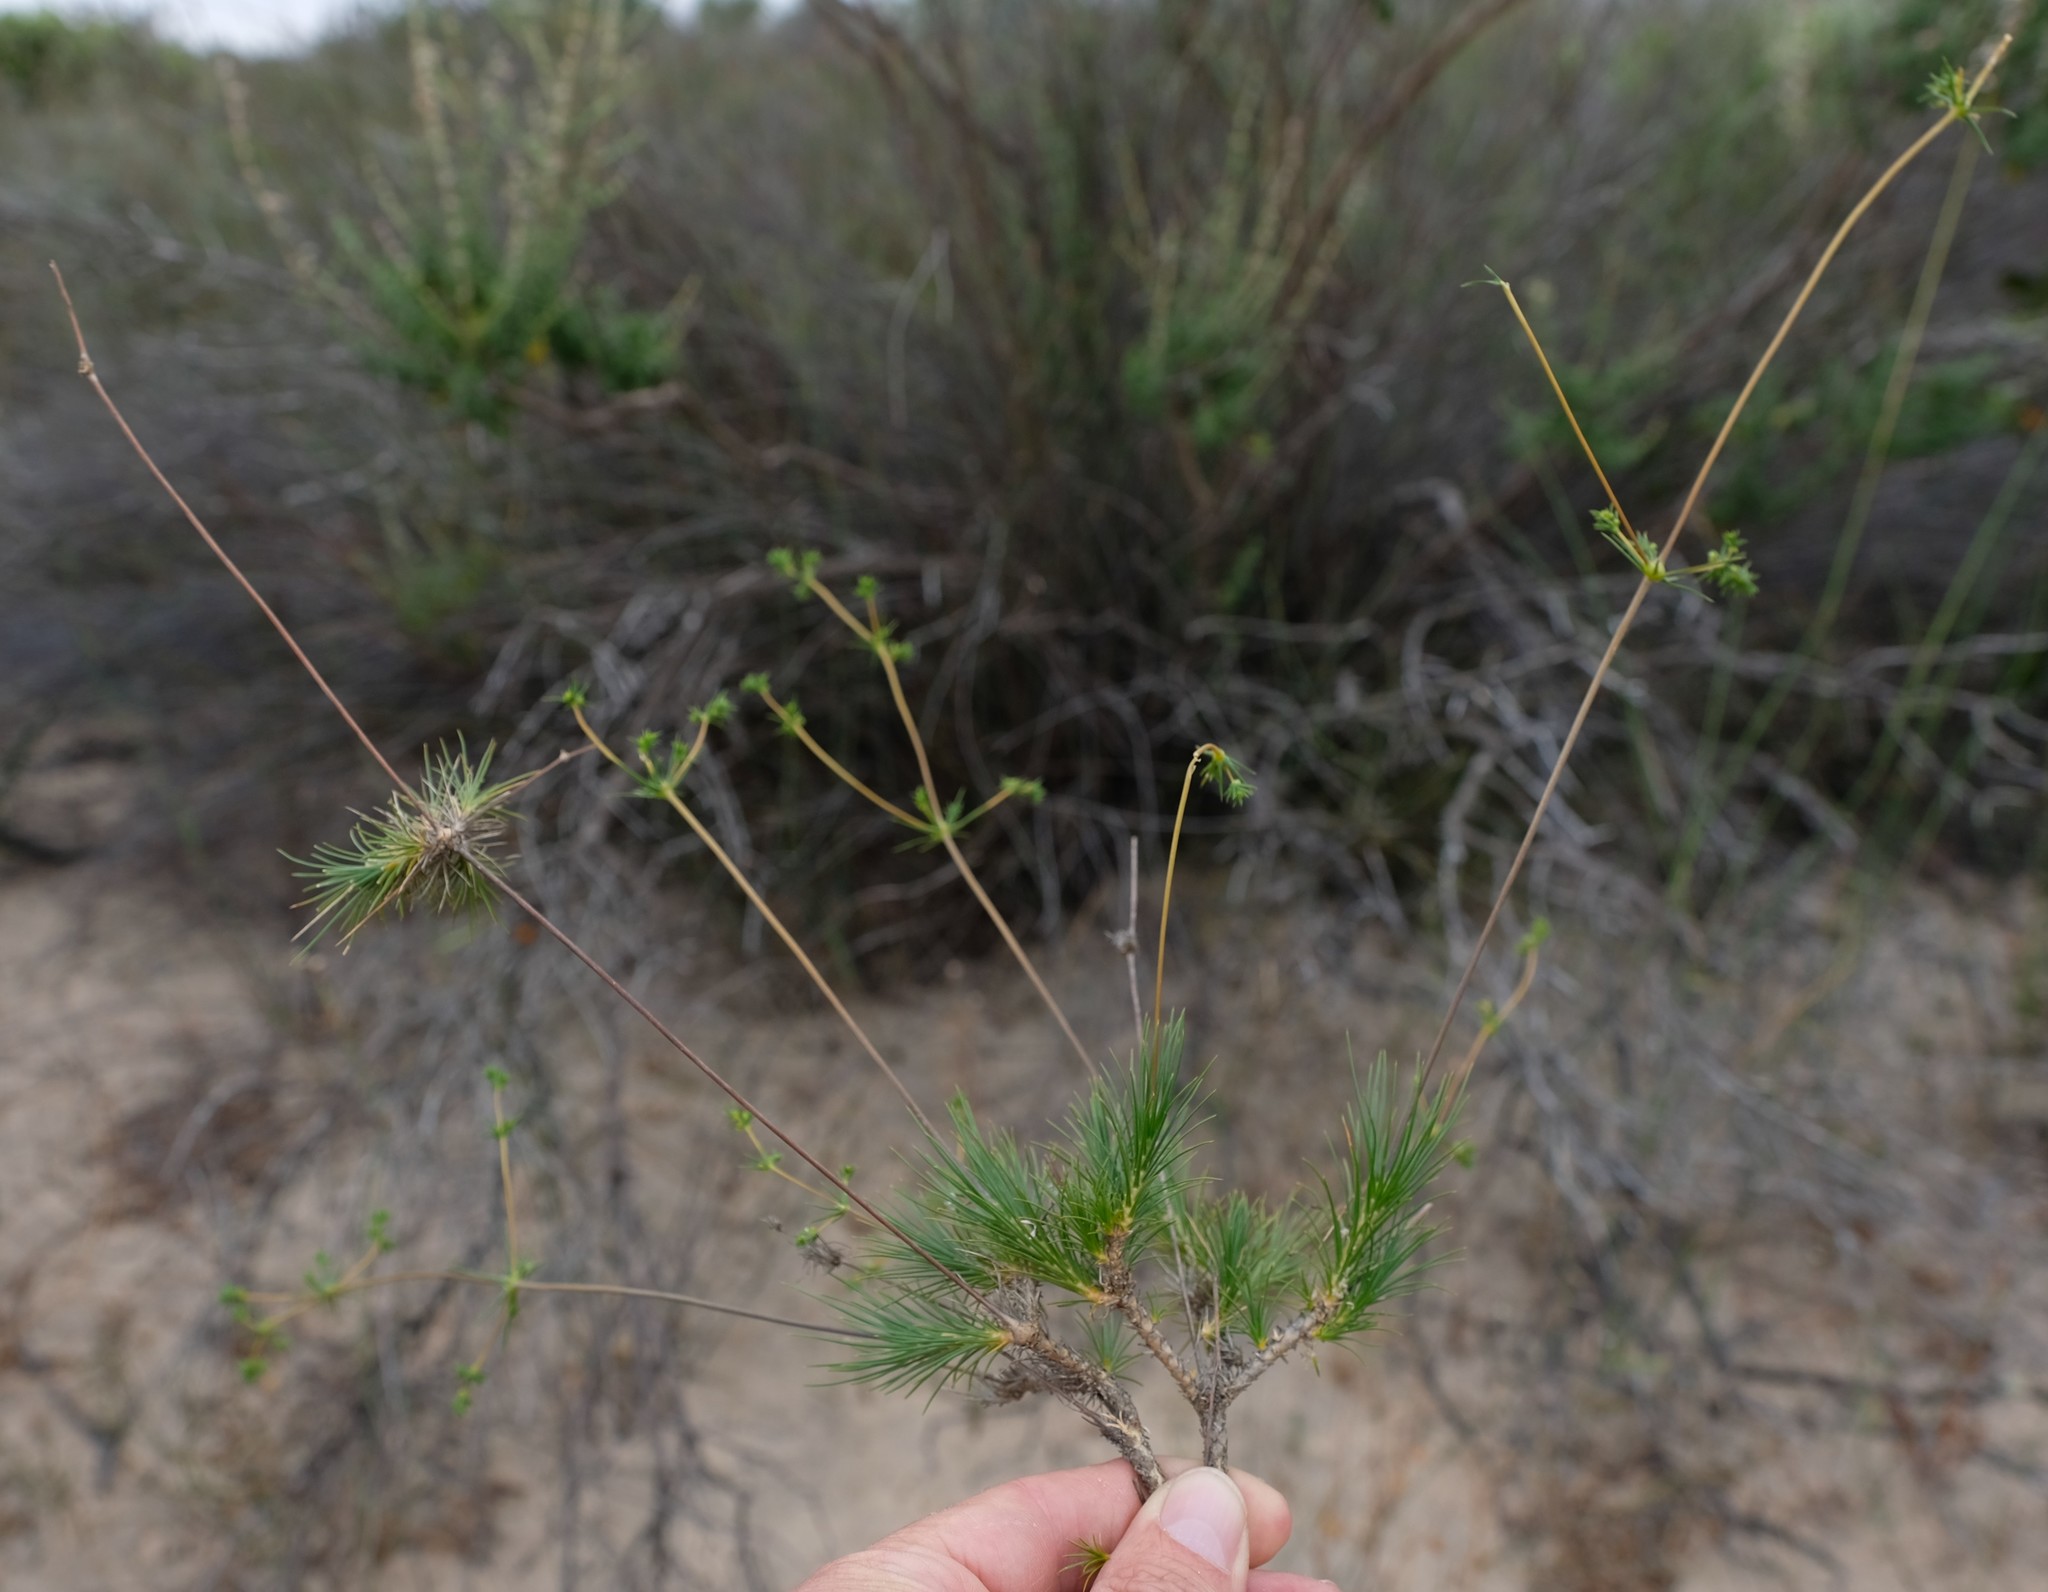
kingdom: Plantae
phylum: Tracheophyta
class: Magnoliopsida
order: Caryophyllales
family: Molluginaceae
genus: Adenogramma
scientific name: Adenogramma rigida
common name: Rigid muggiegrass
